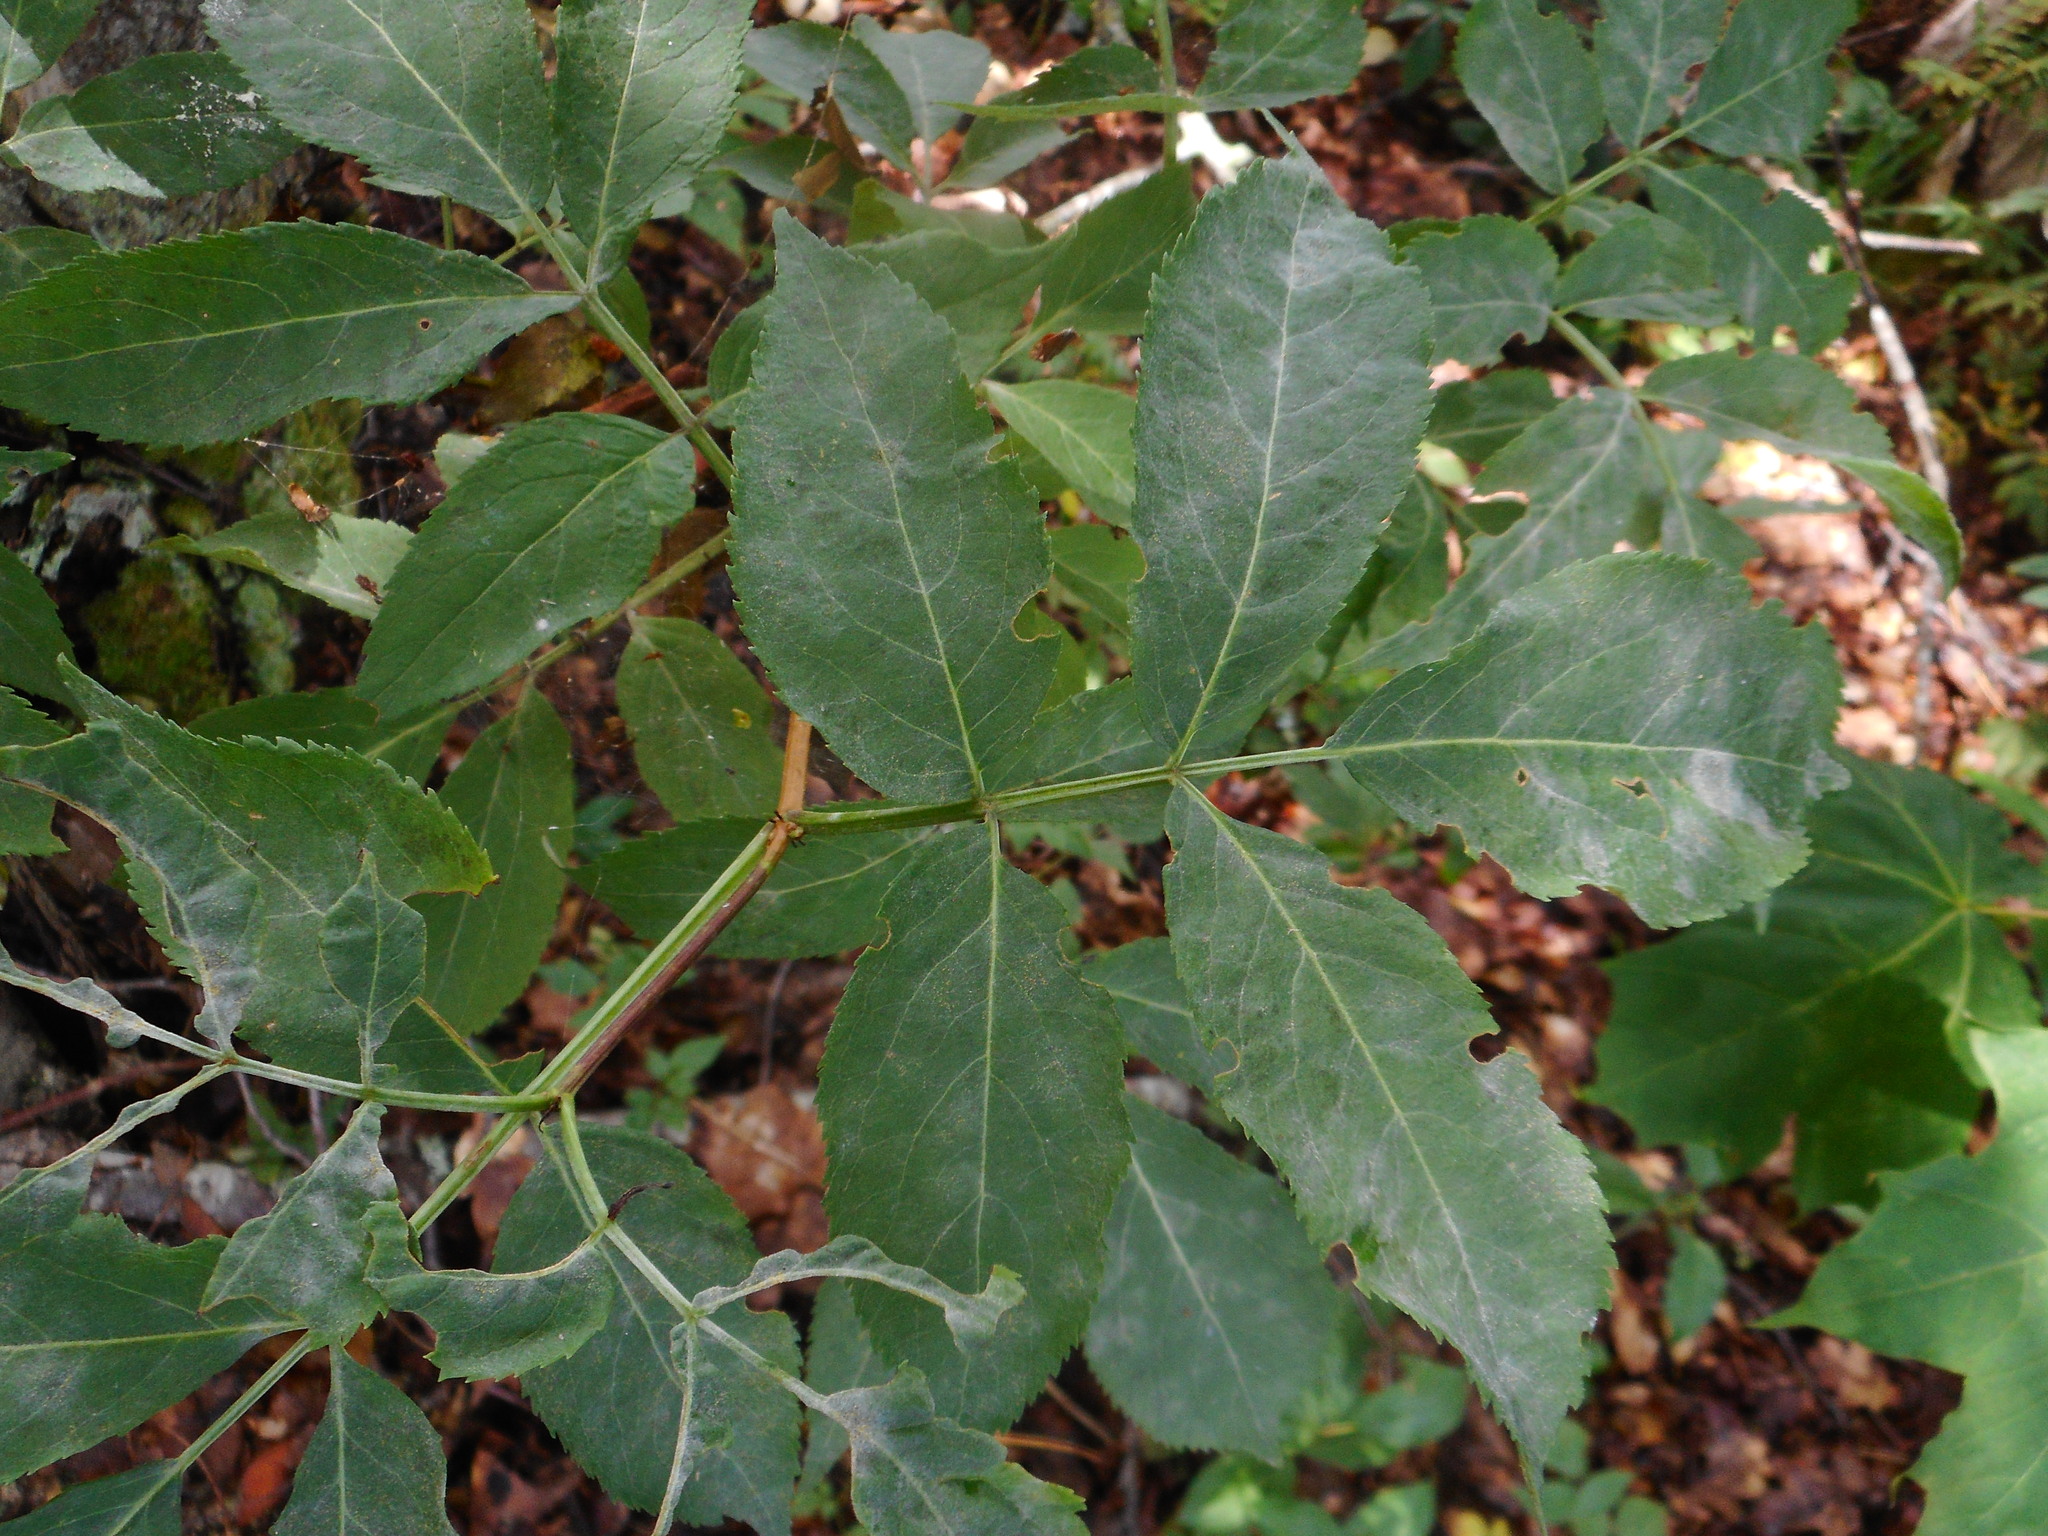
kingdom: Plantae
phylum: Tracheophyta
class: Magnoliopsida
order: Dipsacales
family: Viburnaceae
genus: Sambucus
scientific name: Sambucus racemosa
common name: Red-berried elder
